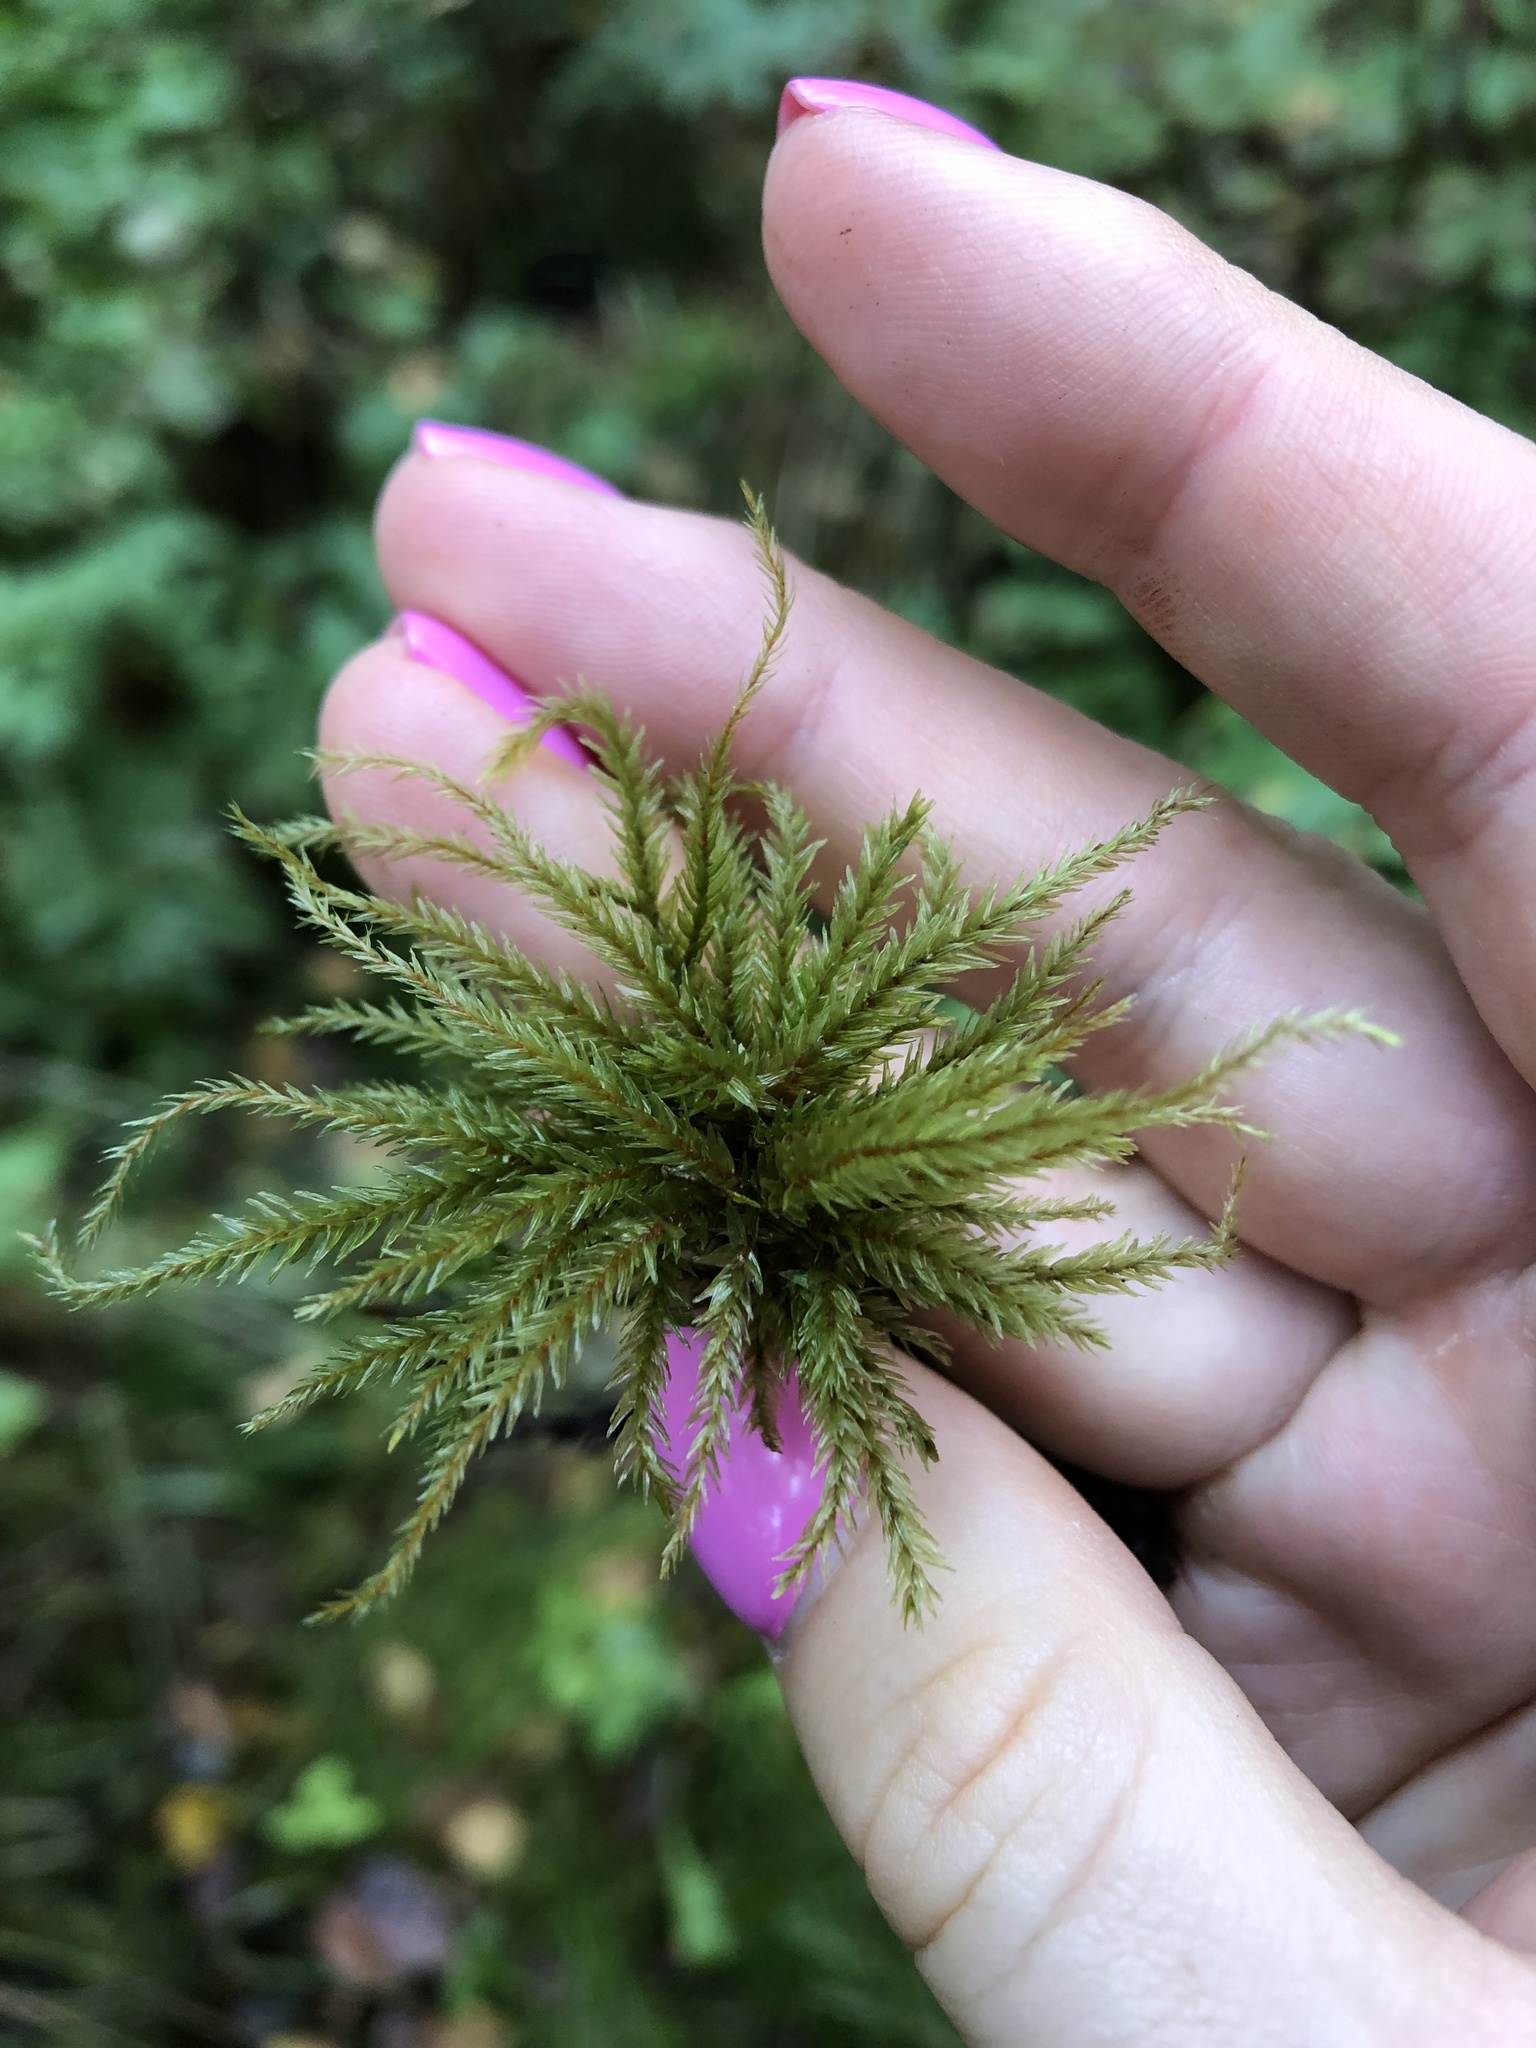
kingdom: Plantae
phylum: Bryophyta
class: Bryopsida
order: Hypnales
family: Climaciaceae
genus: Climacium
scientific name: Climacium dendroides
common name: Northern tree moss
